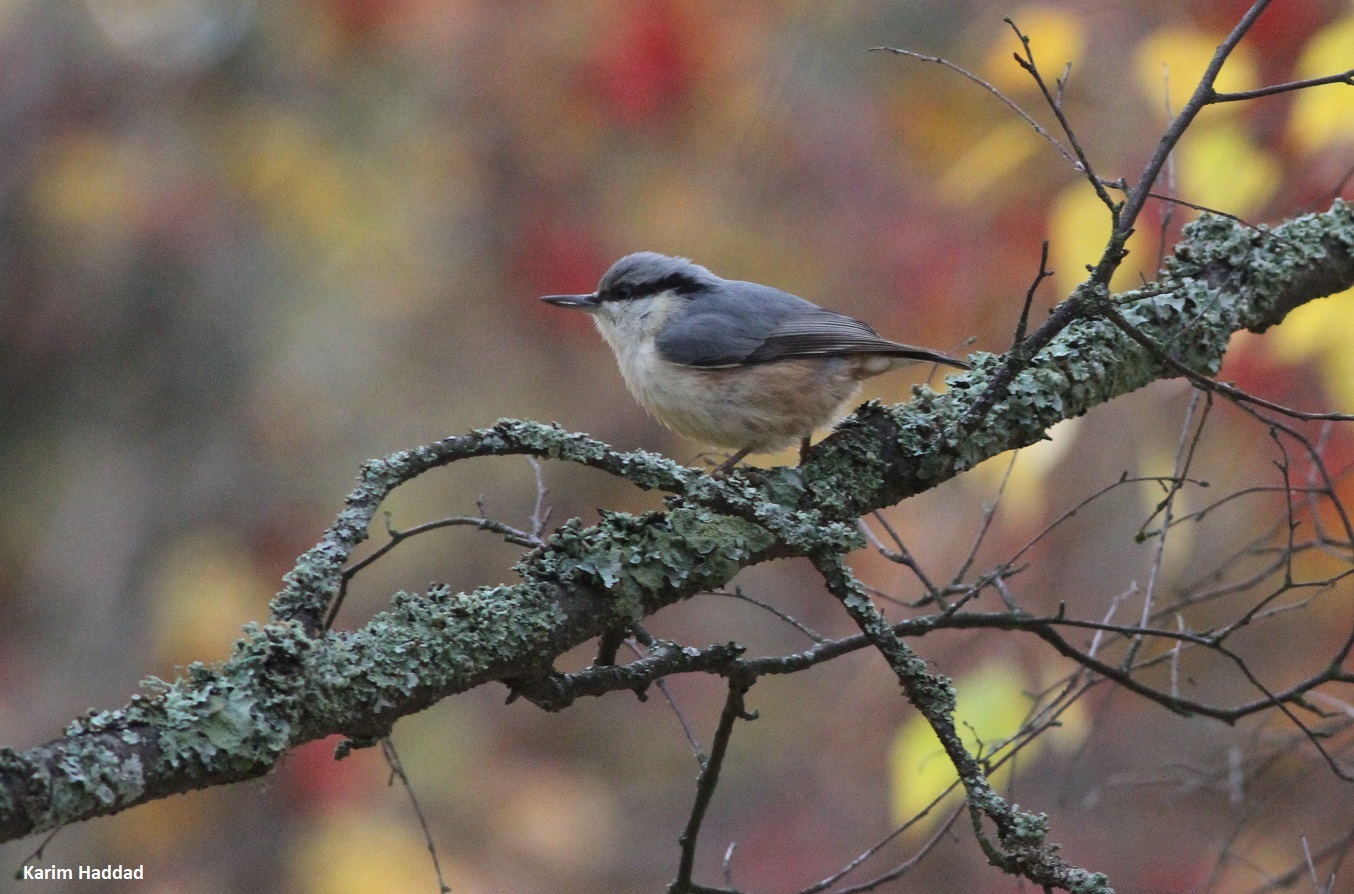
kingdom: Animalia
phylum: Chordata
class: Aves
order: Passeriformes
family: Sittidae
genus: Sitta
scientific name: Sitta europaea
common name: Eurasian nuthatch
